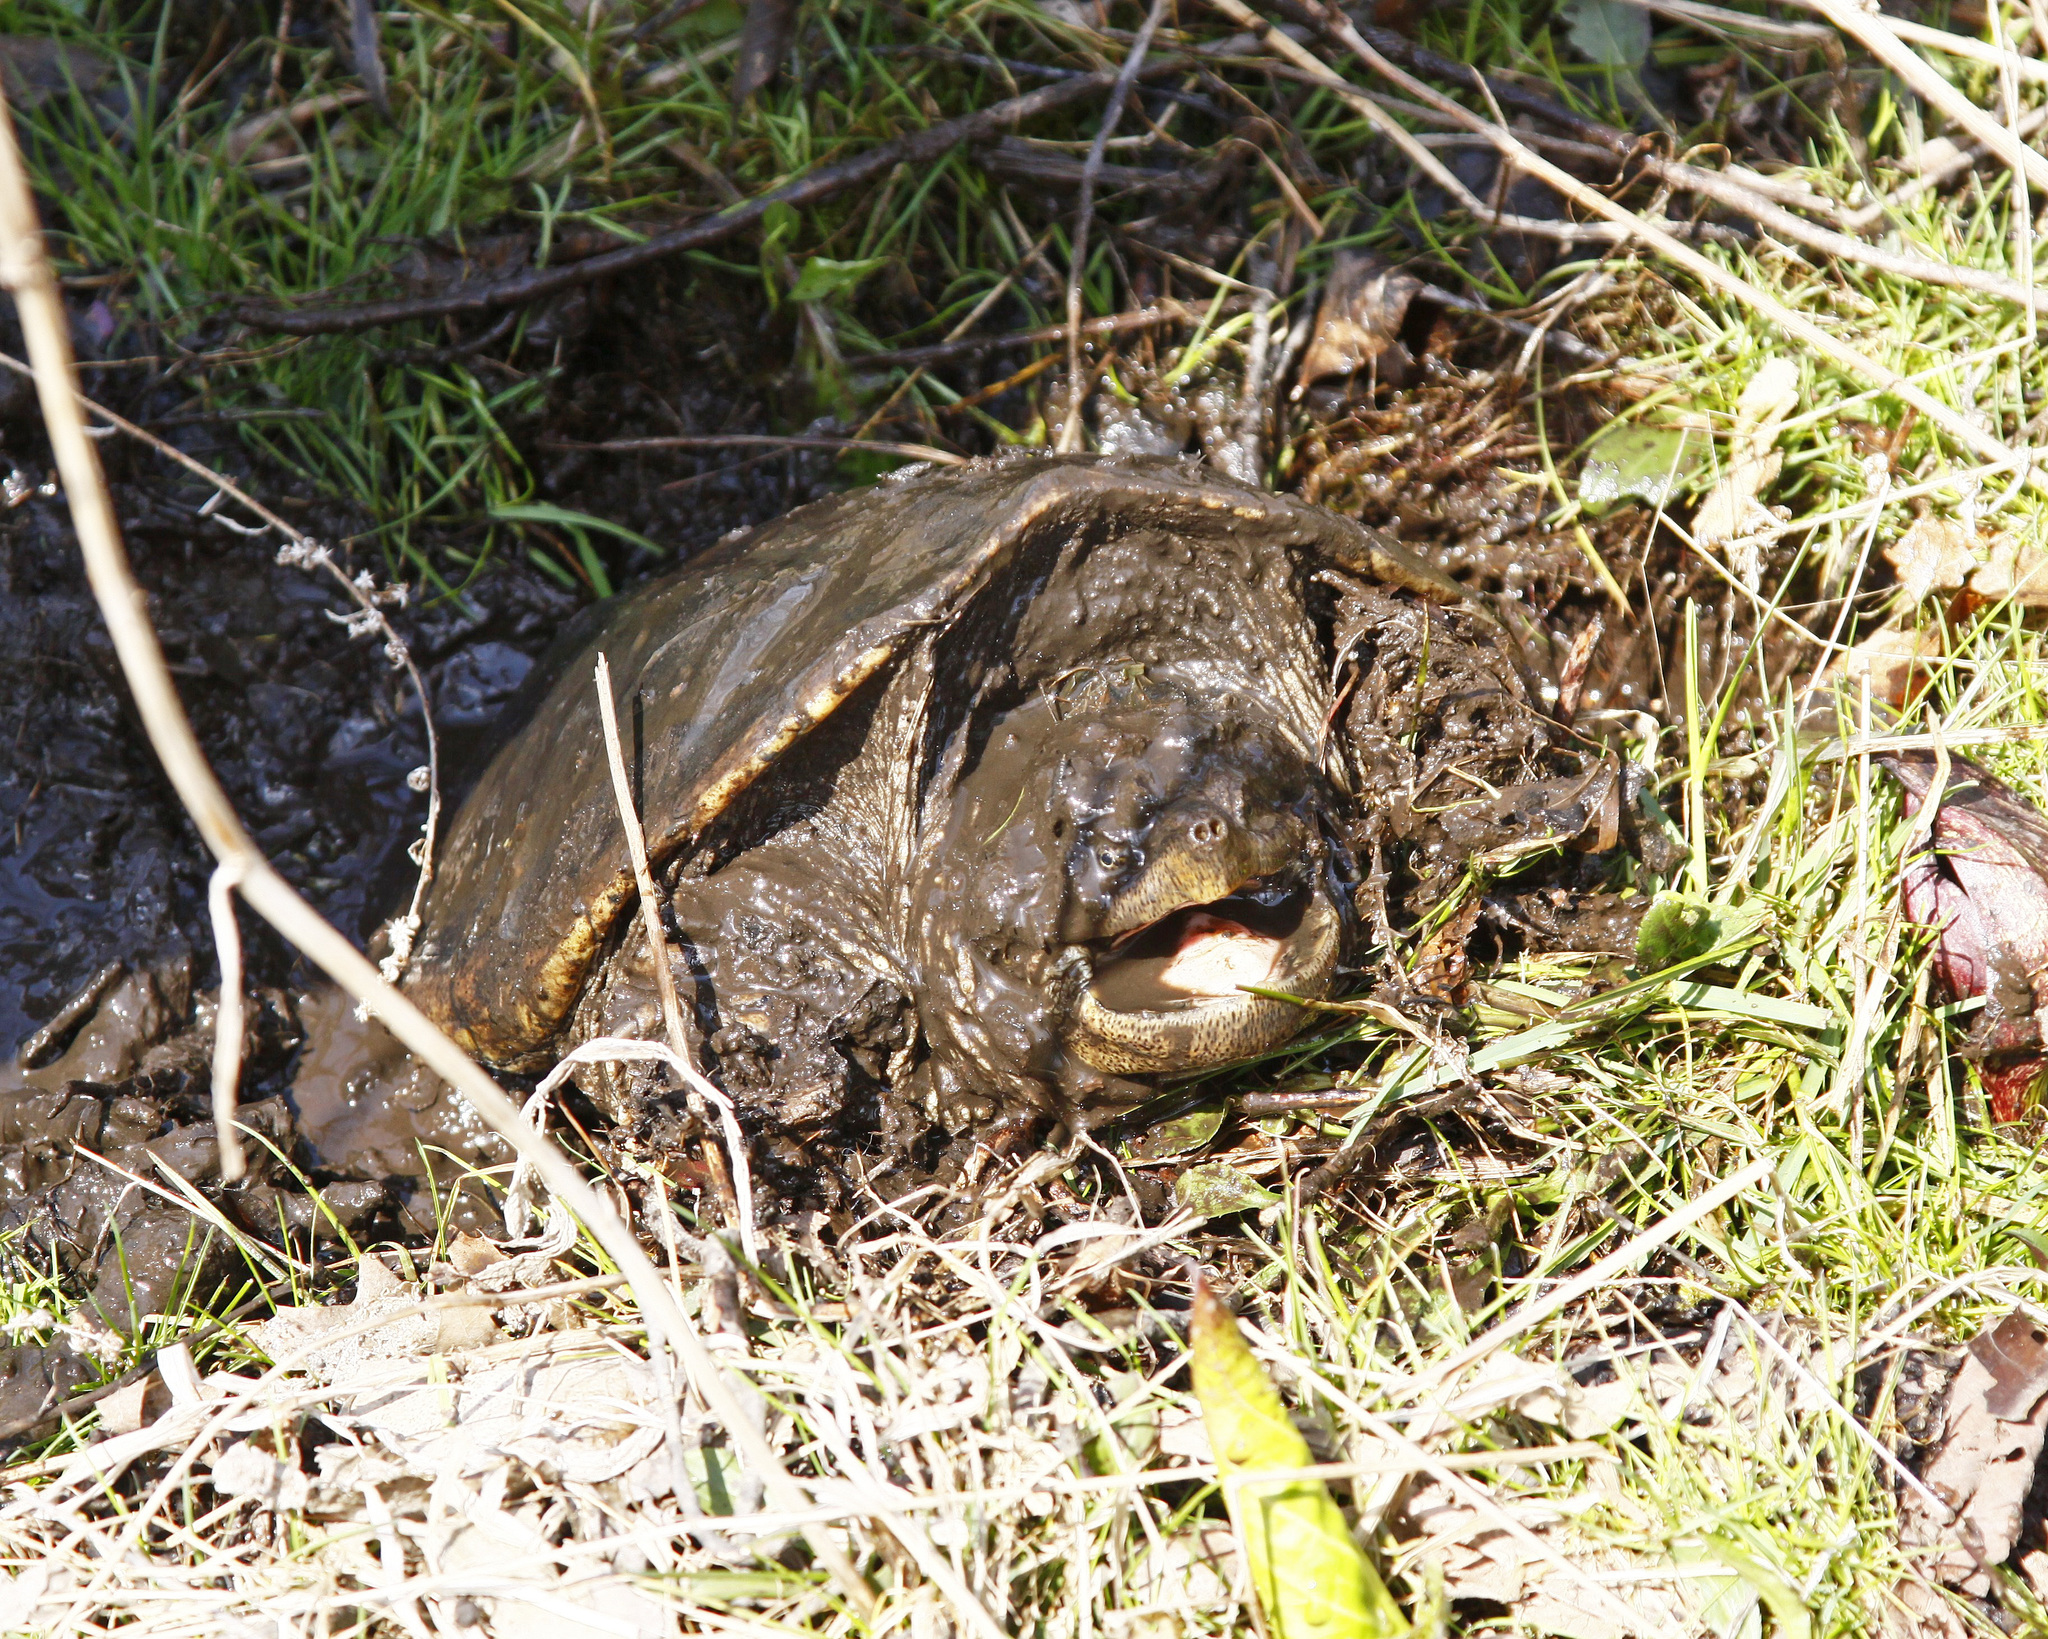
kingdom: Animalia
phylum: Chordata
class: Testudines
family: Chelydridae
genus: Chelydra
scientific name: Chelydra serpentina
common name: Common snapping turtle
